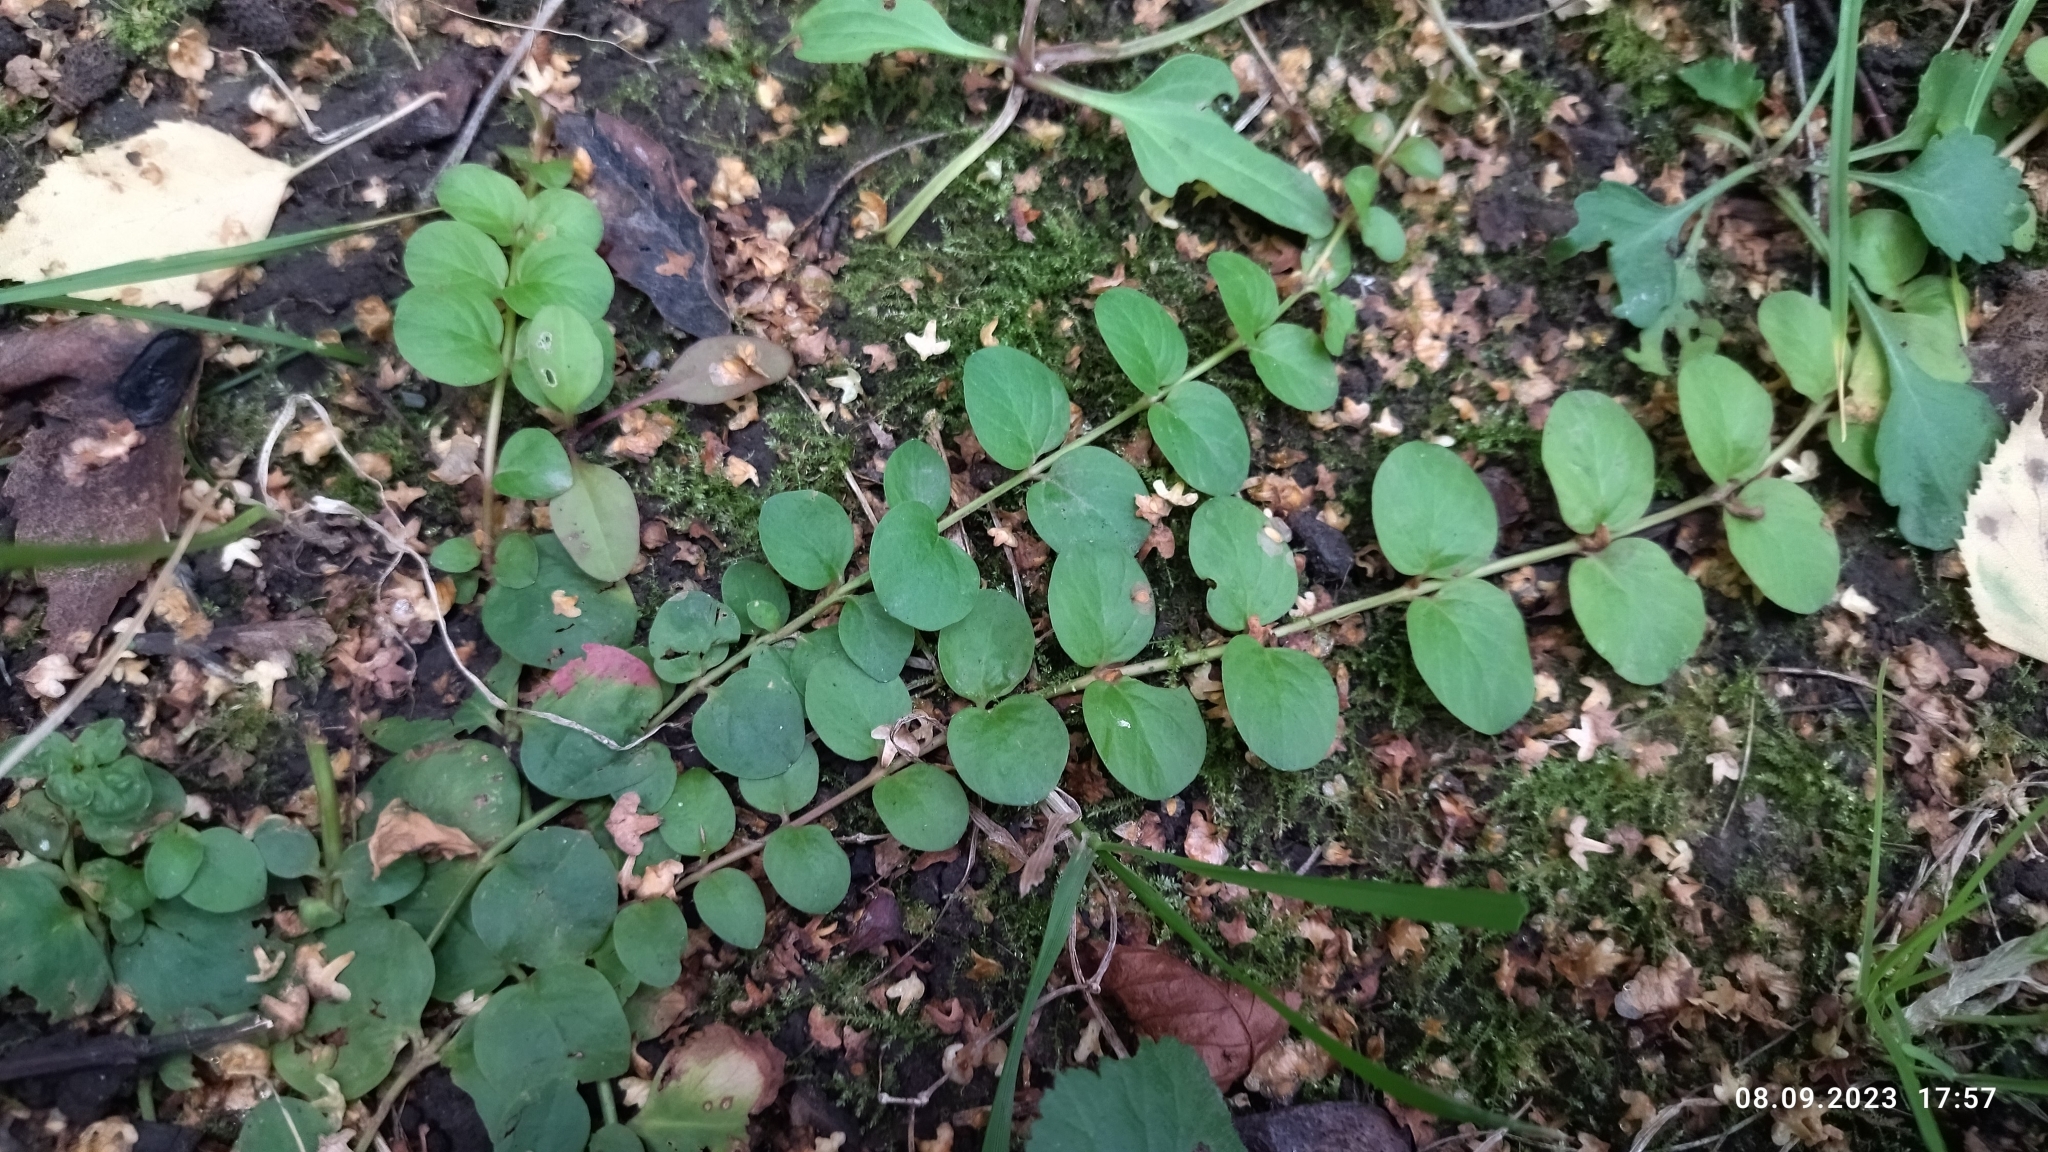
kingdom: Plantae
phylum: Tracheophyta
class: Magnoliopsida
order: Ericales
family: Primulaceae
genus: Lysimachia
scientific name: Lysimachia nummularia
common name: Moneywort
